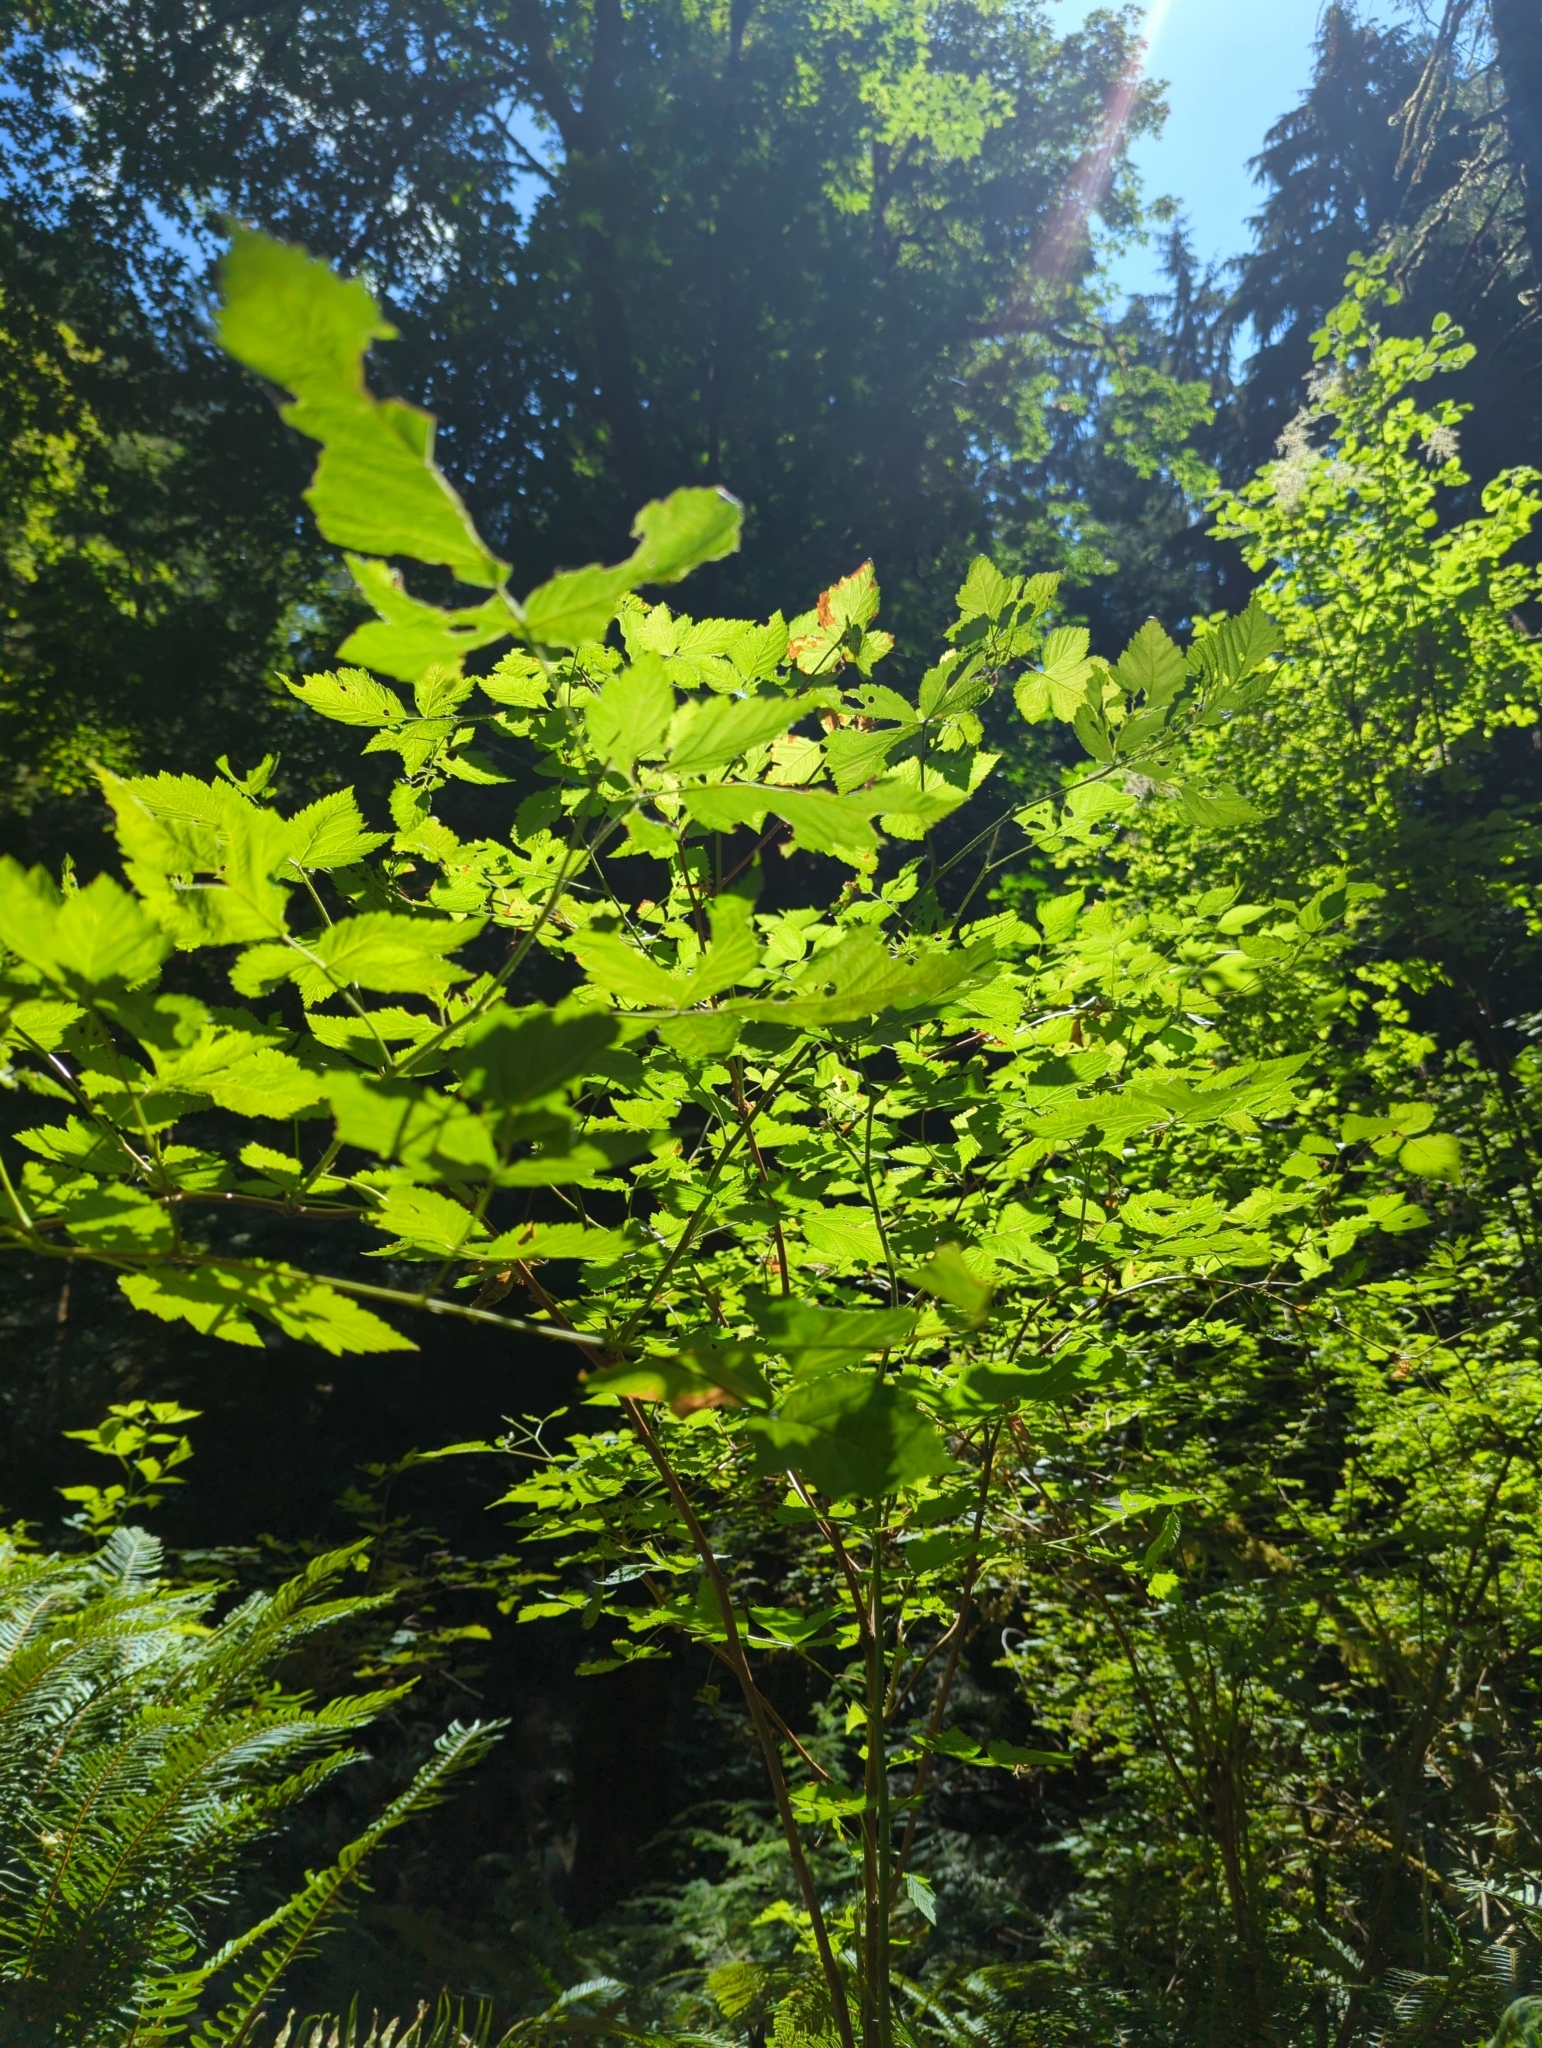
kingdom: Plantae
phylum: Tracheophyta
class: Magnoliopsida
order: Rosales
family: Rosaceae
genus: Rubus
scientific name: Rubus spectabilis
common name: Salmonberry
